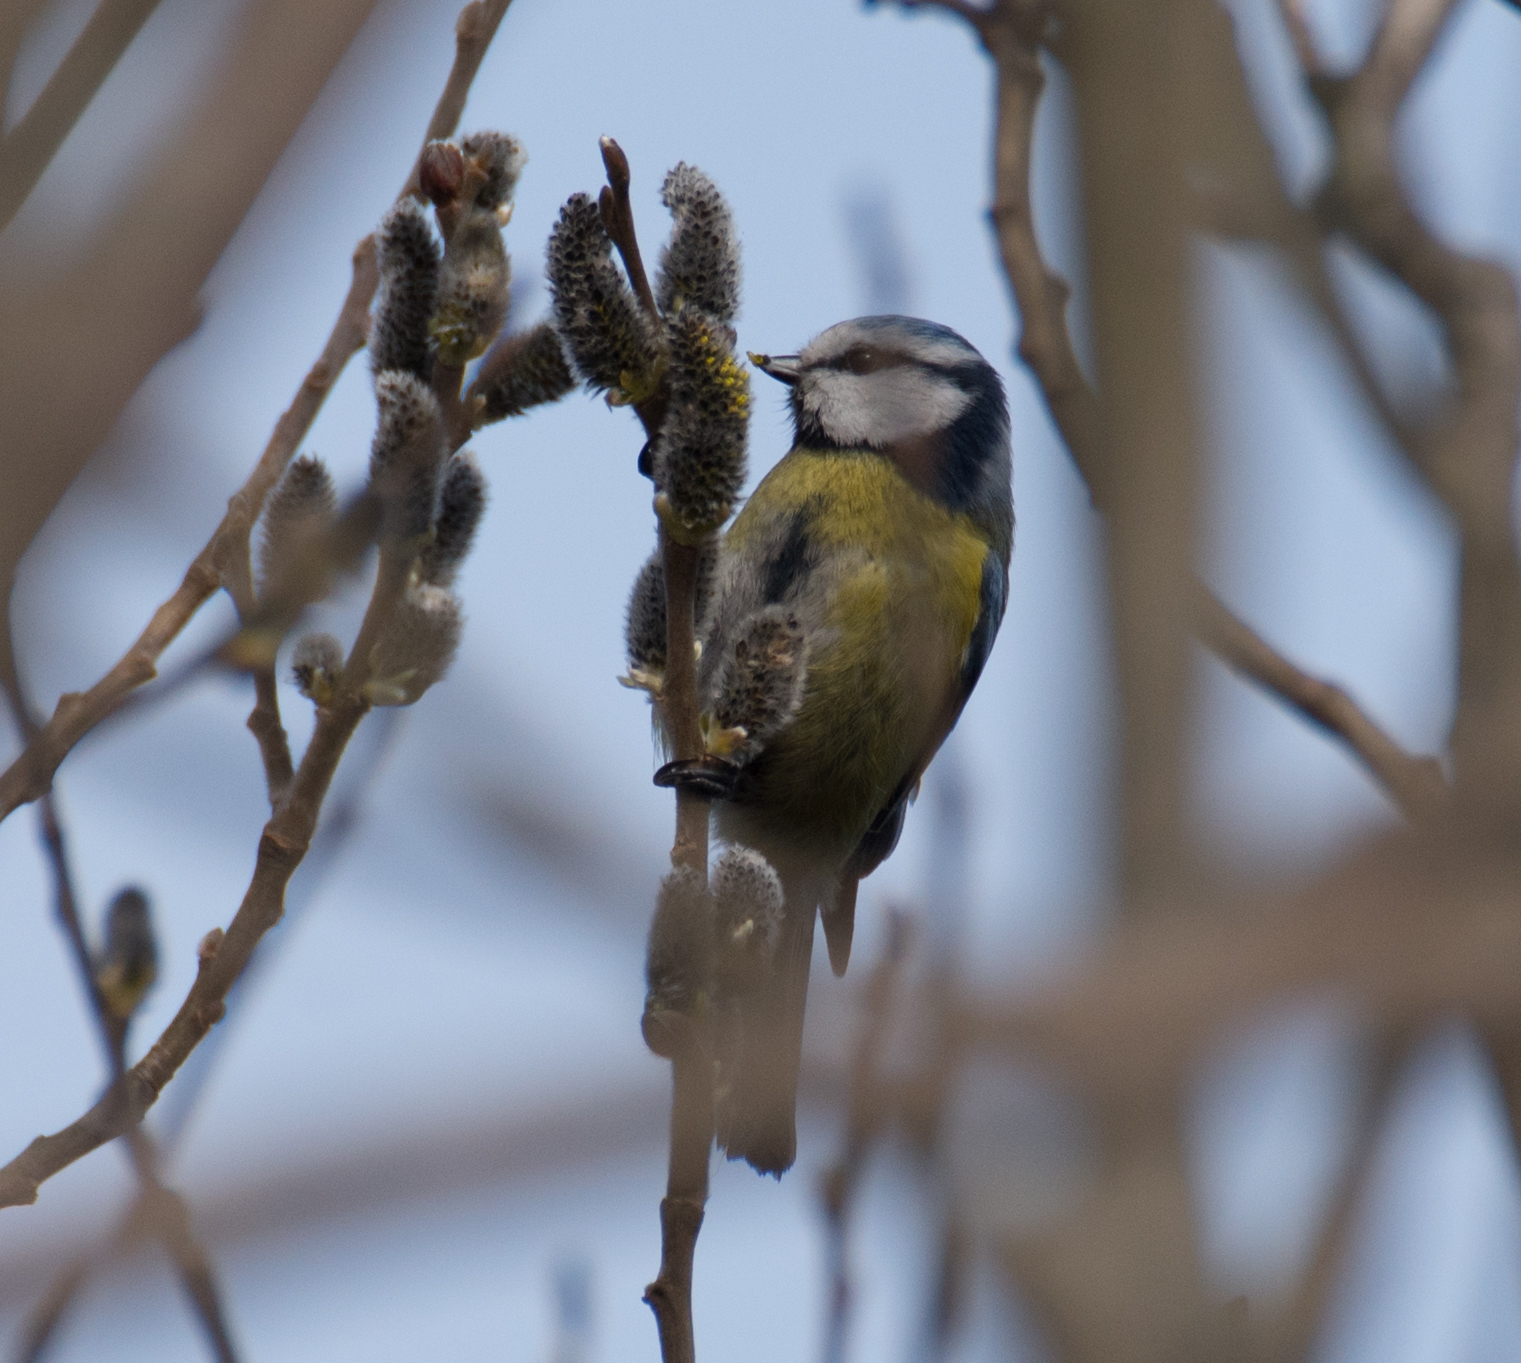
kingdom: Animalia
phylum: Chordata
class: Aves
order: Passeriformes
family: Paridae
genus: Cyanistes
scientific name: Cyanistes caeruleus
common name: Eurasian blue tit
